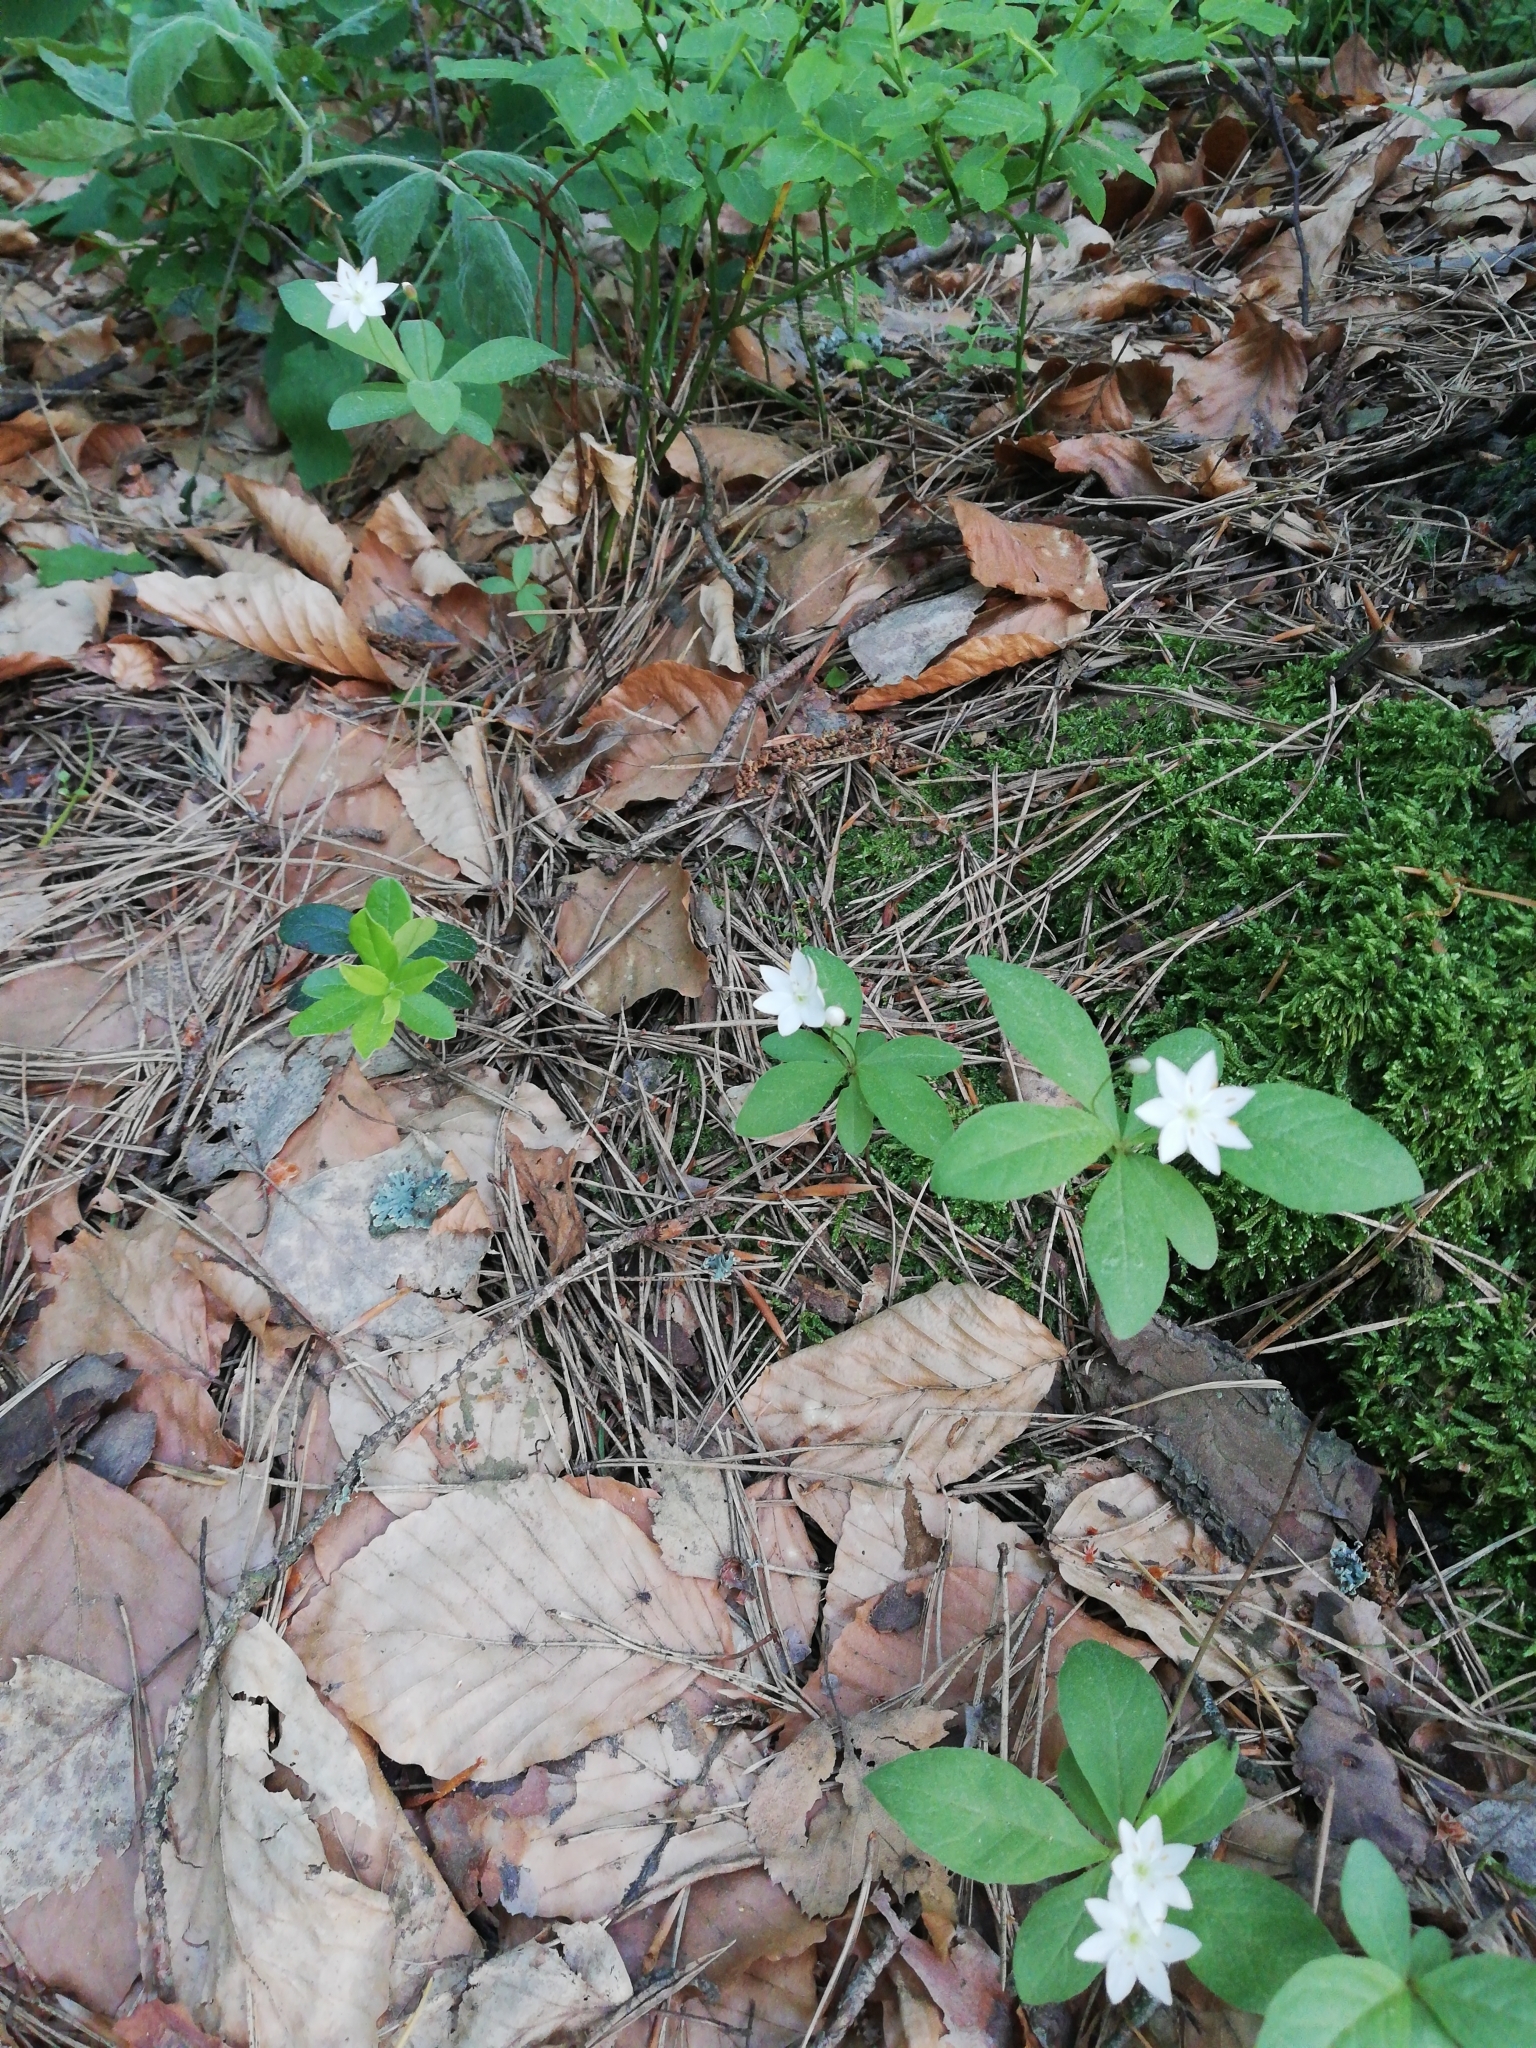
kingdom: Plantae
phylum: Tracheophyta
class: Magnoliopsida
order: Ericales
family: Primulaceae
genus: Lysimachia
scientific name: Lysimachia europaea
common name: Arctic starflower
